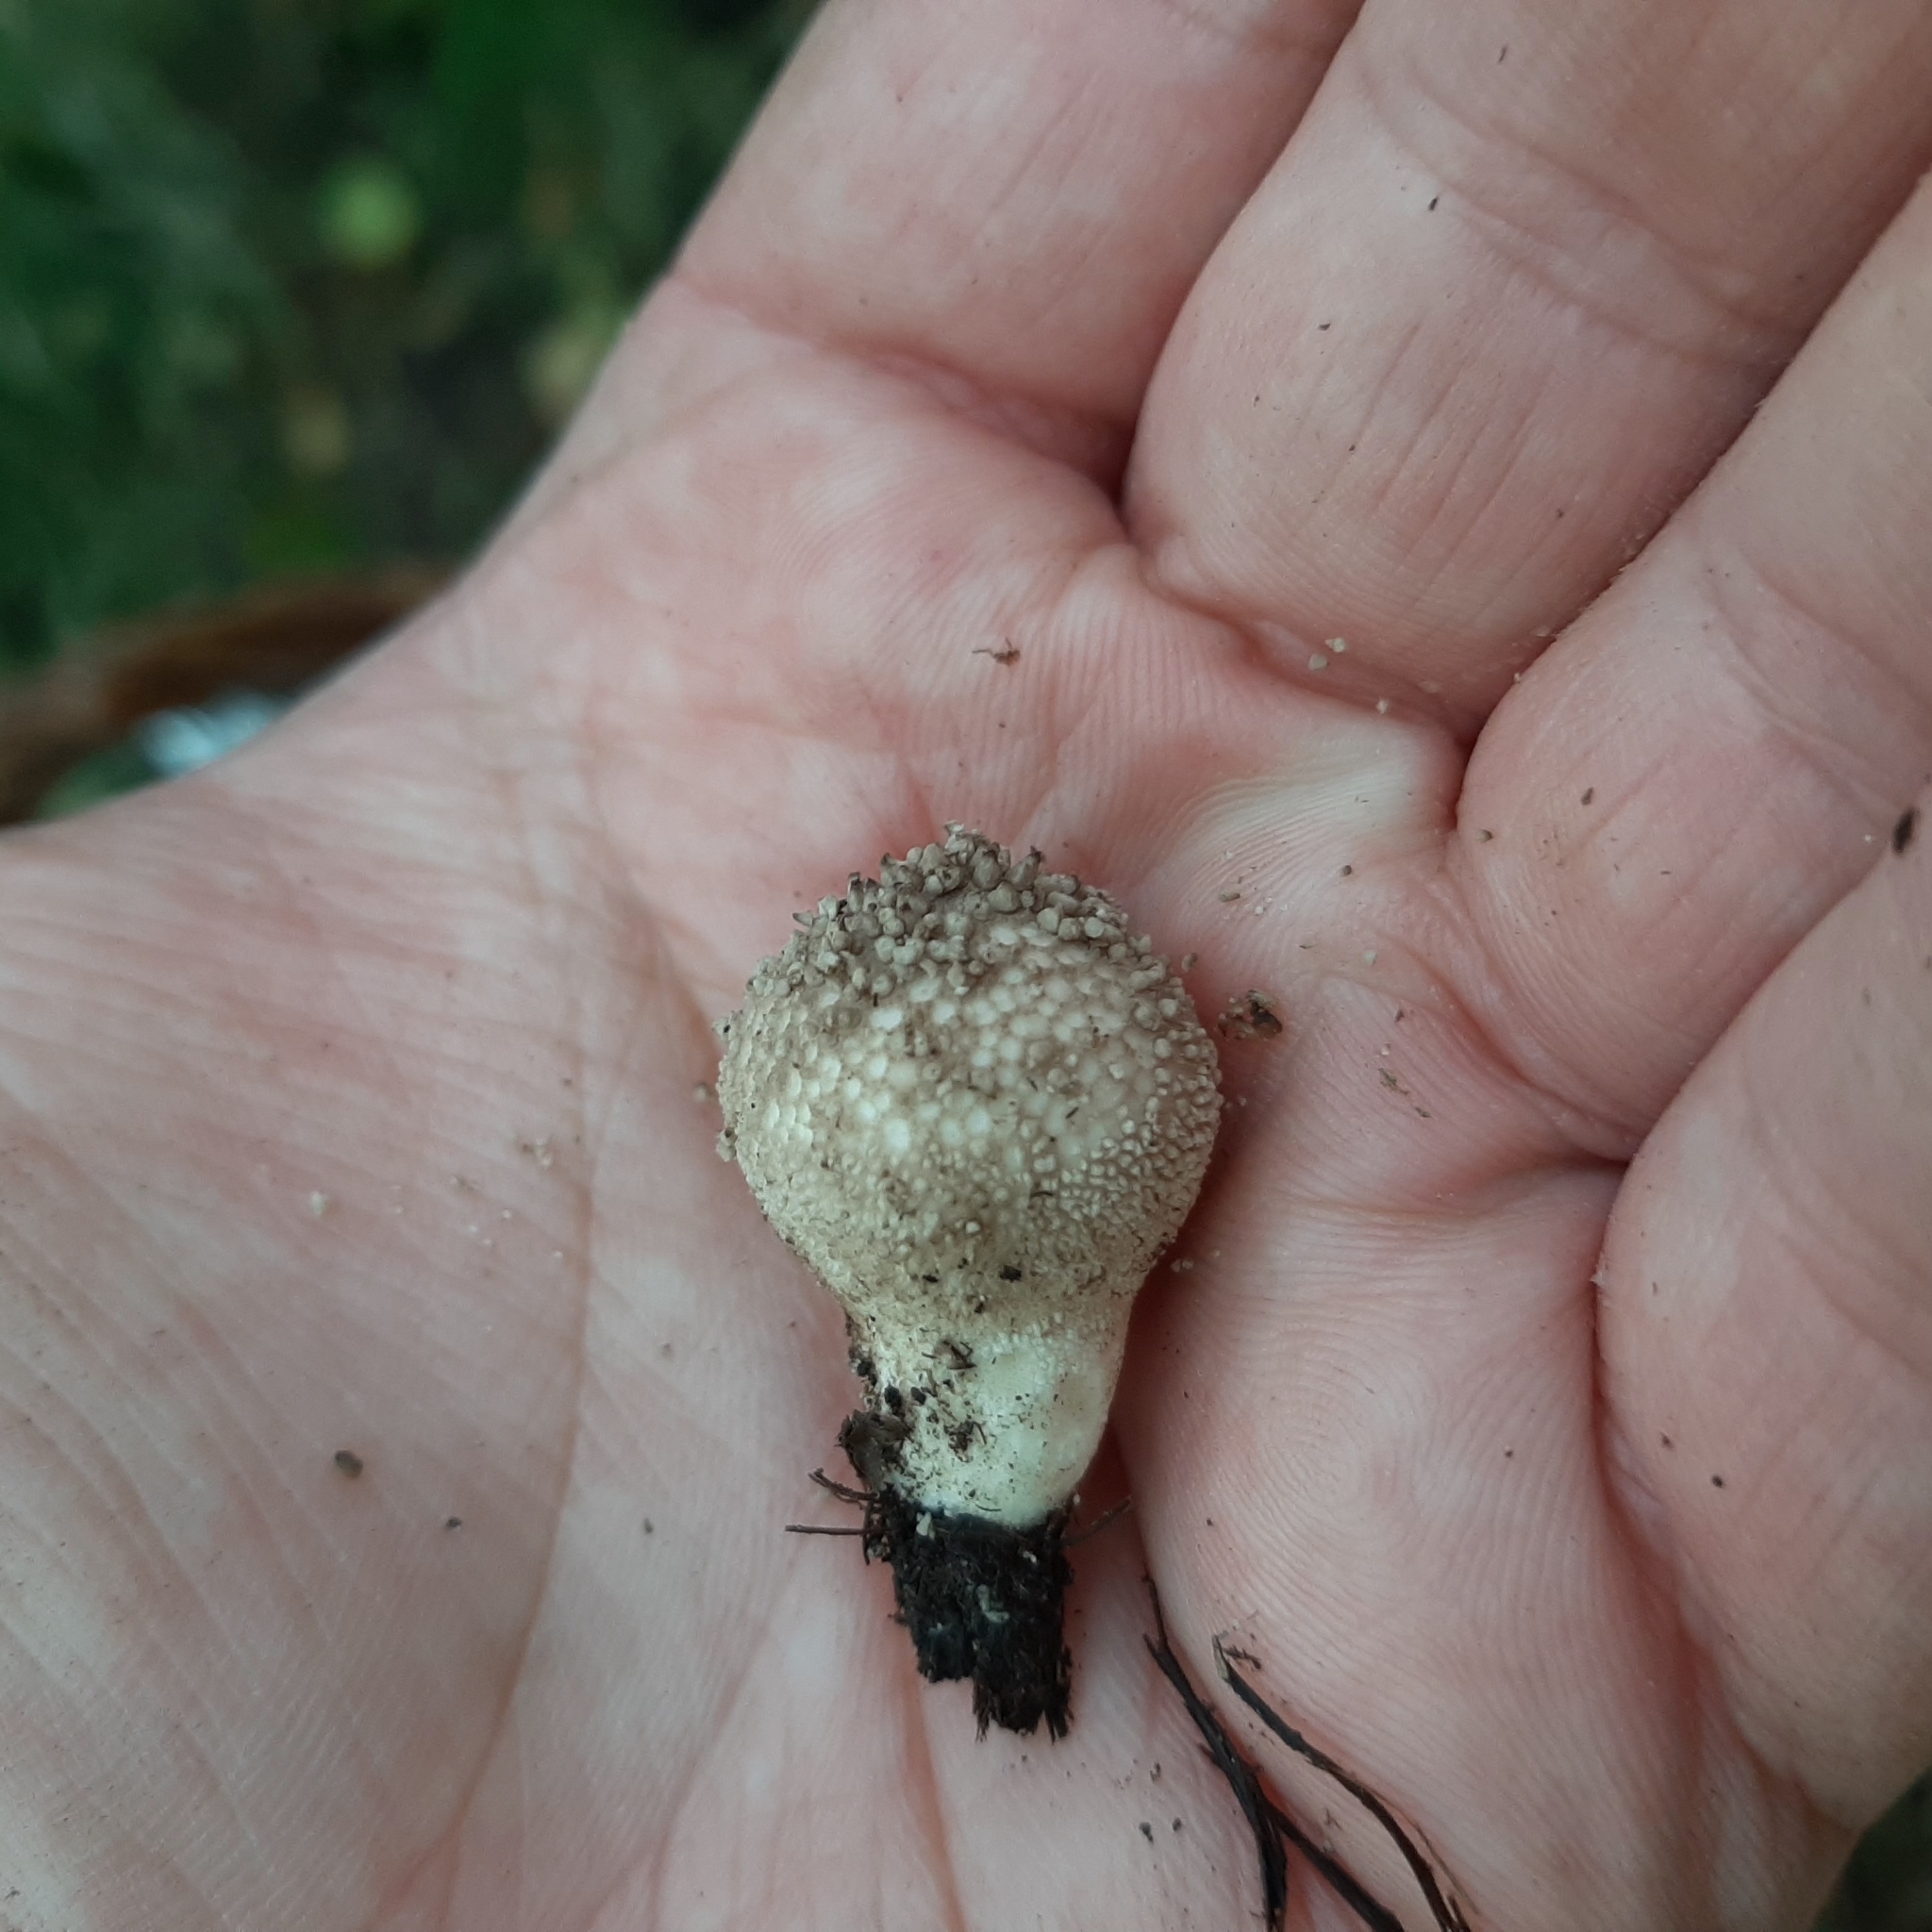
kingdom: Fungi
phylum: Basidiomycota
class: Agaricomycetes
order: Agaricales
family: Lycoperdaceae
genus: Lycoperdon
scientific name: Lycoperdon nigrescens
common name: Blackish puffball
